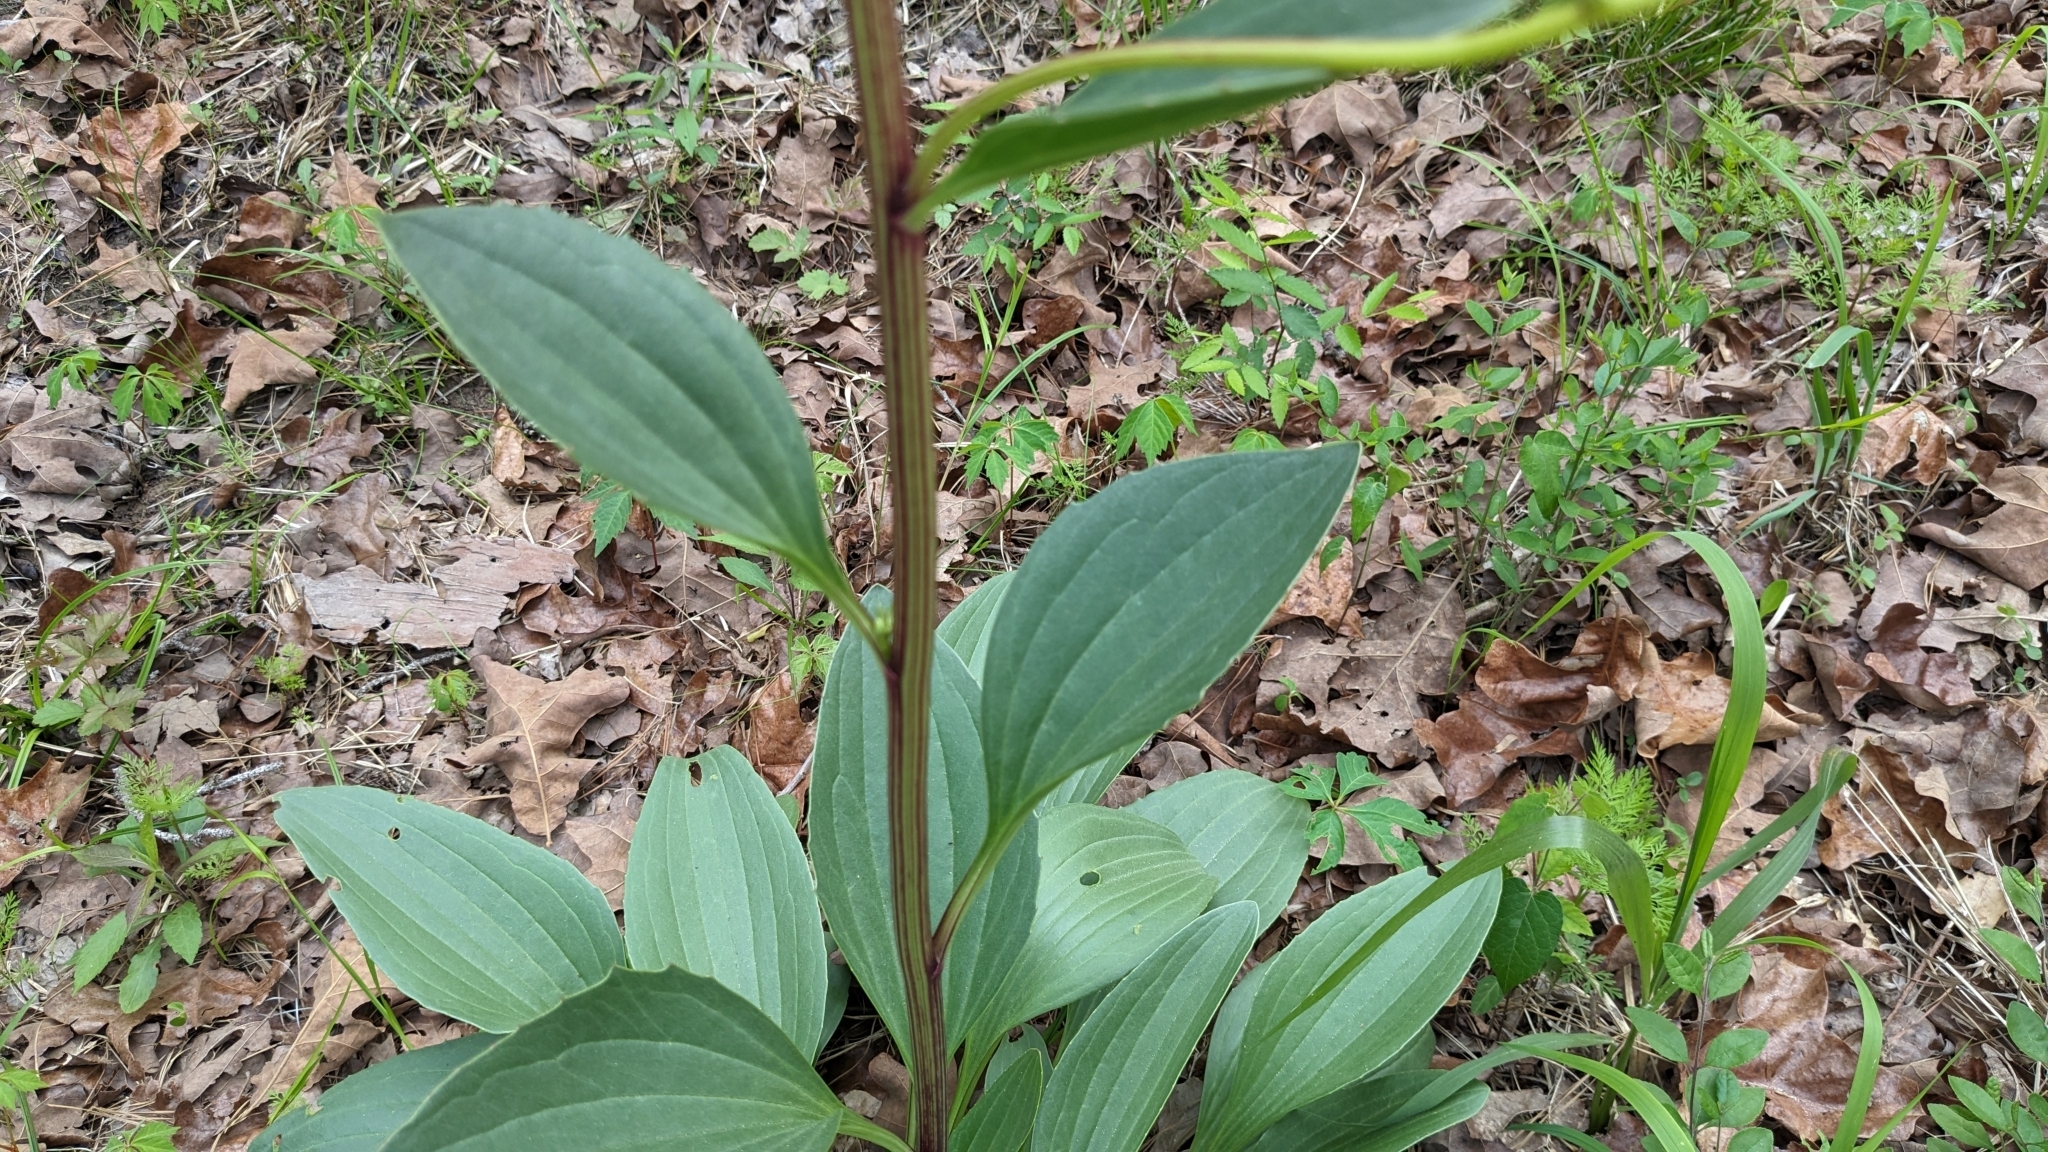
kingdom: Plantae
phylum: Tracheophyta
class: Magnoliopsida
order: Asterales
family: Asteraceae
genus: Arnoglossum
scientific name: Arnoglossum plantagineum
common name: Groove-stemmed indian-plantain
